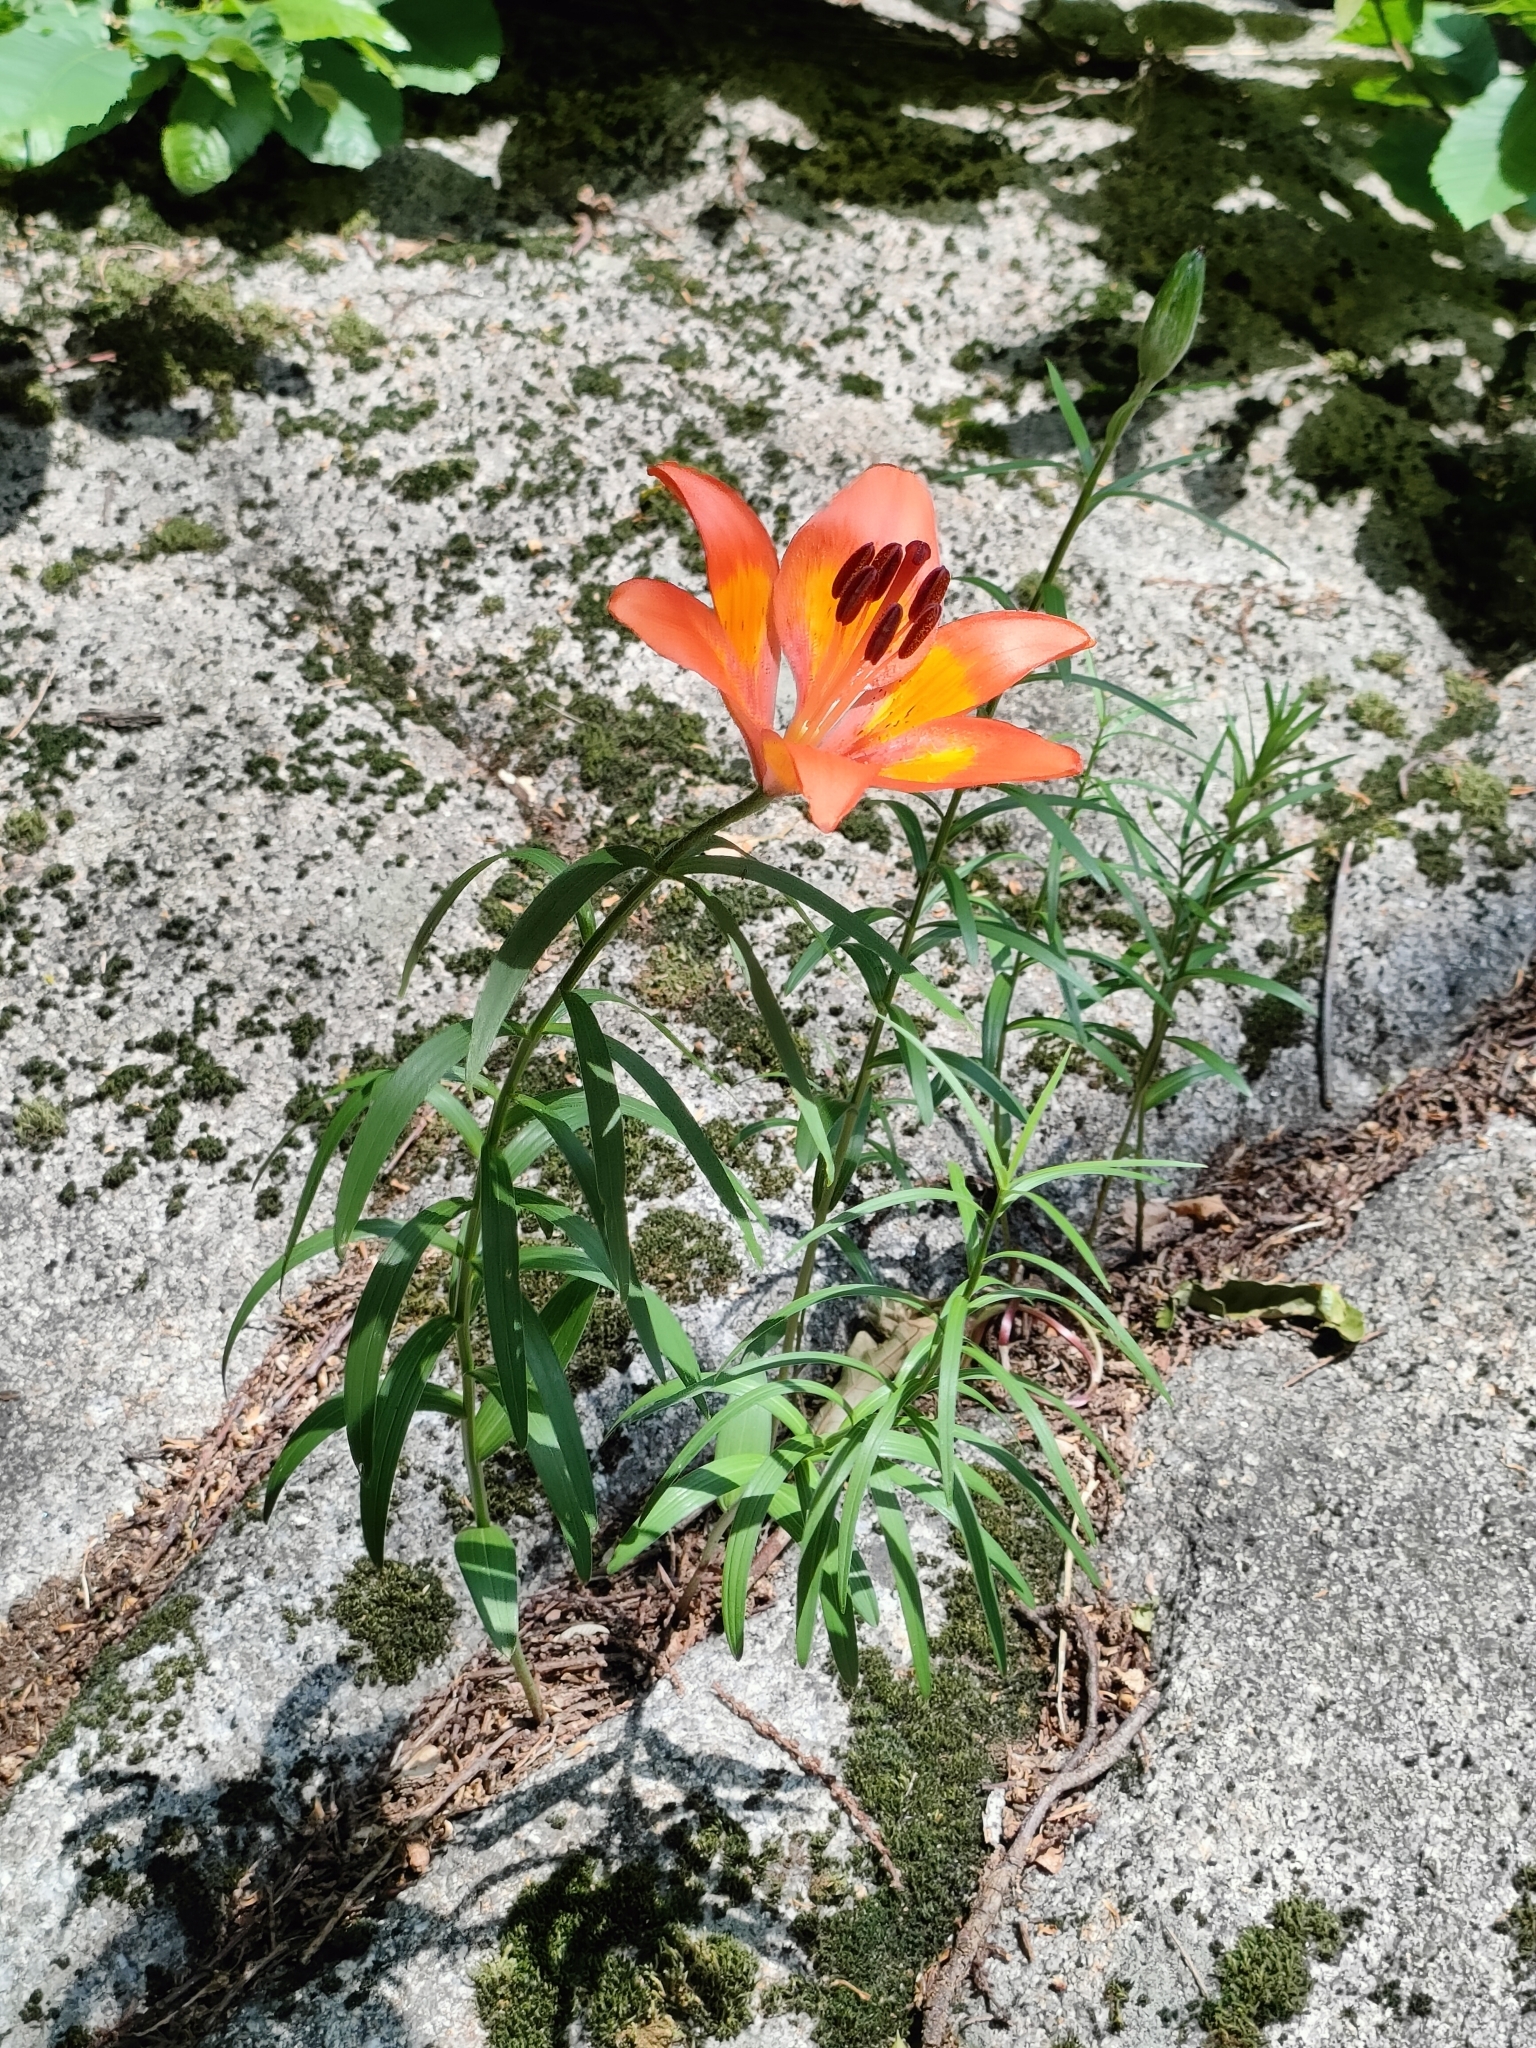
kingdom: Plantae
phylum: Tracheophyta
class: Liliopsida
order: Liliales
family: Liliaceae
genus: Lilium
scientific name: Lilium bulbiferum
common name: Orange lily
